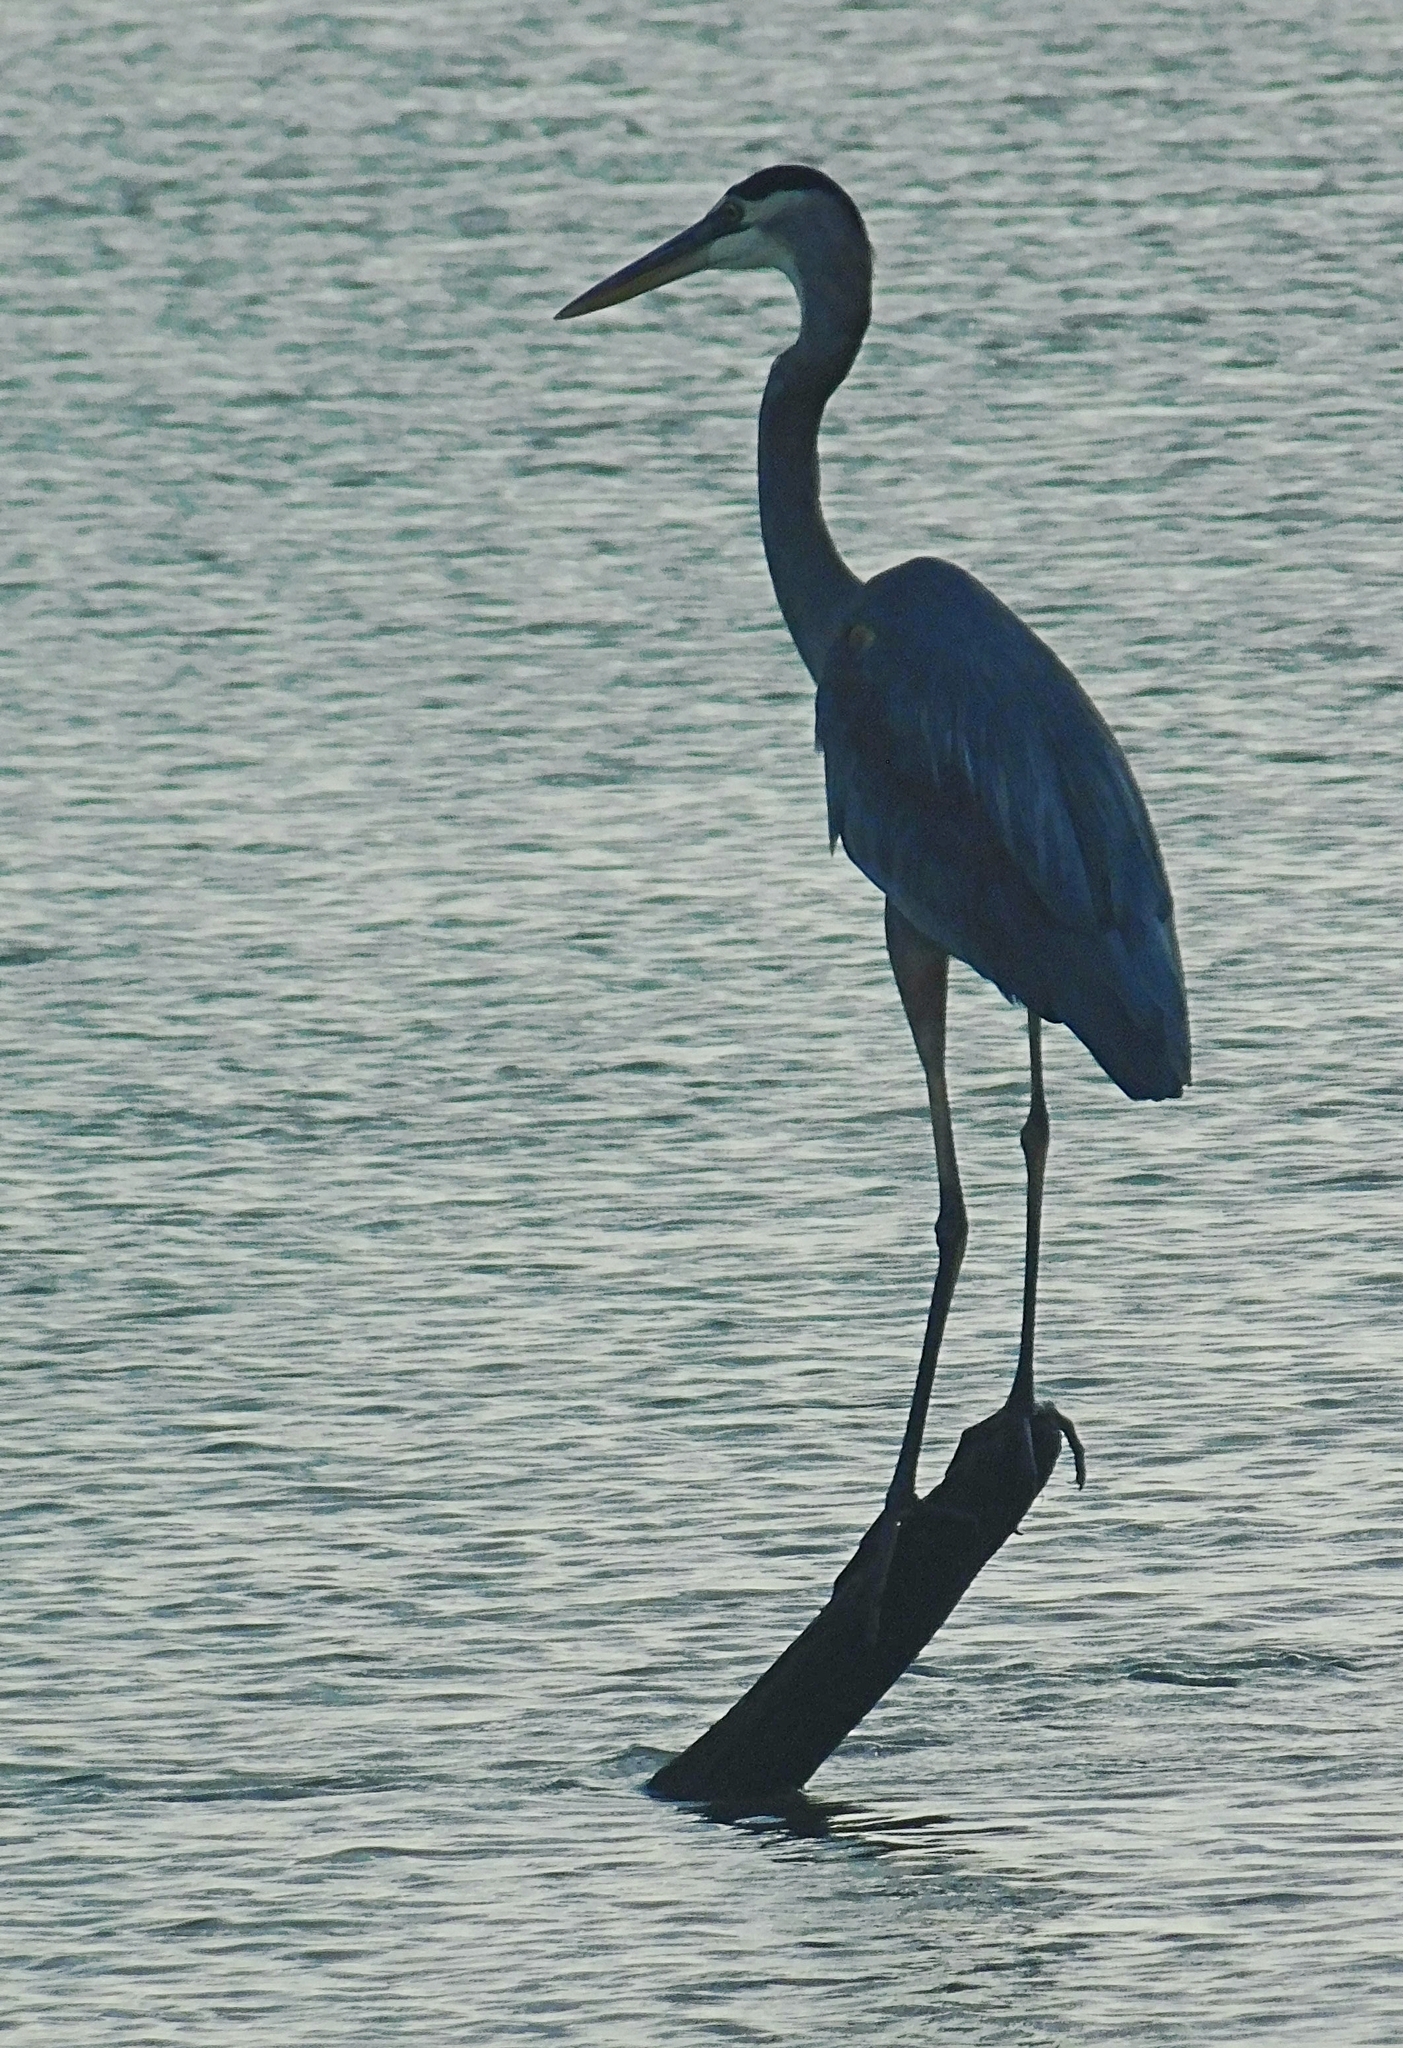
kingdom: Animalia
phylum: Chordata
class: Aves
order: Pelecaniformes
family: Ardeidae
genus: Ardea
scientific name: Ardea herodias
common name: Great blue heron
